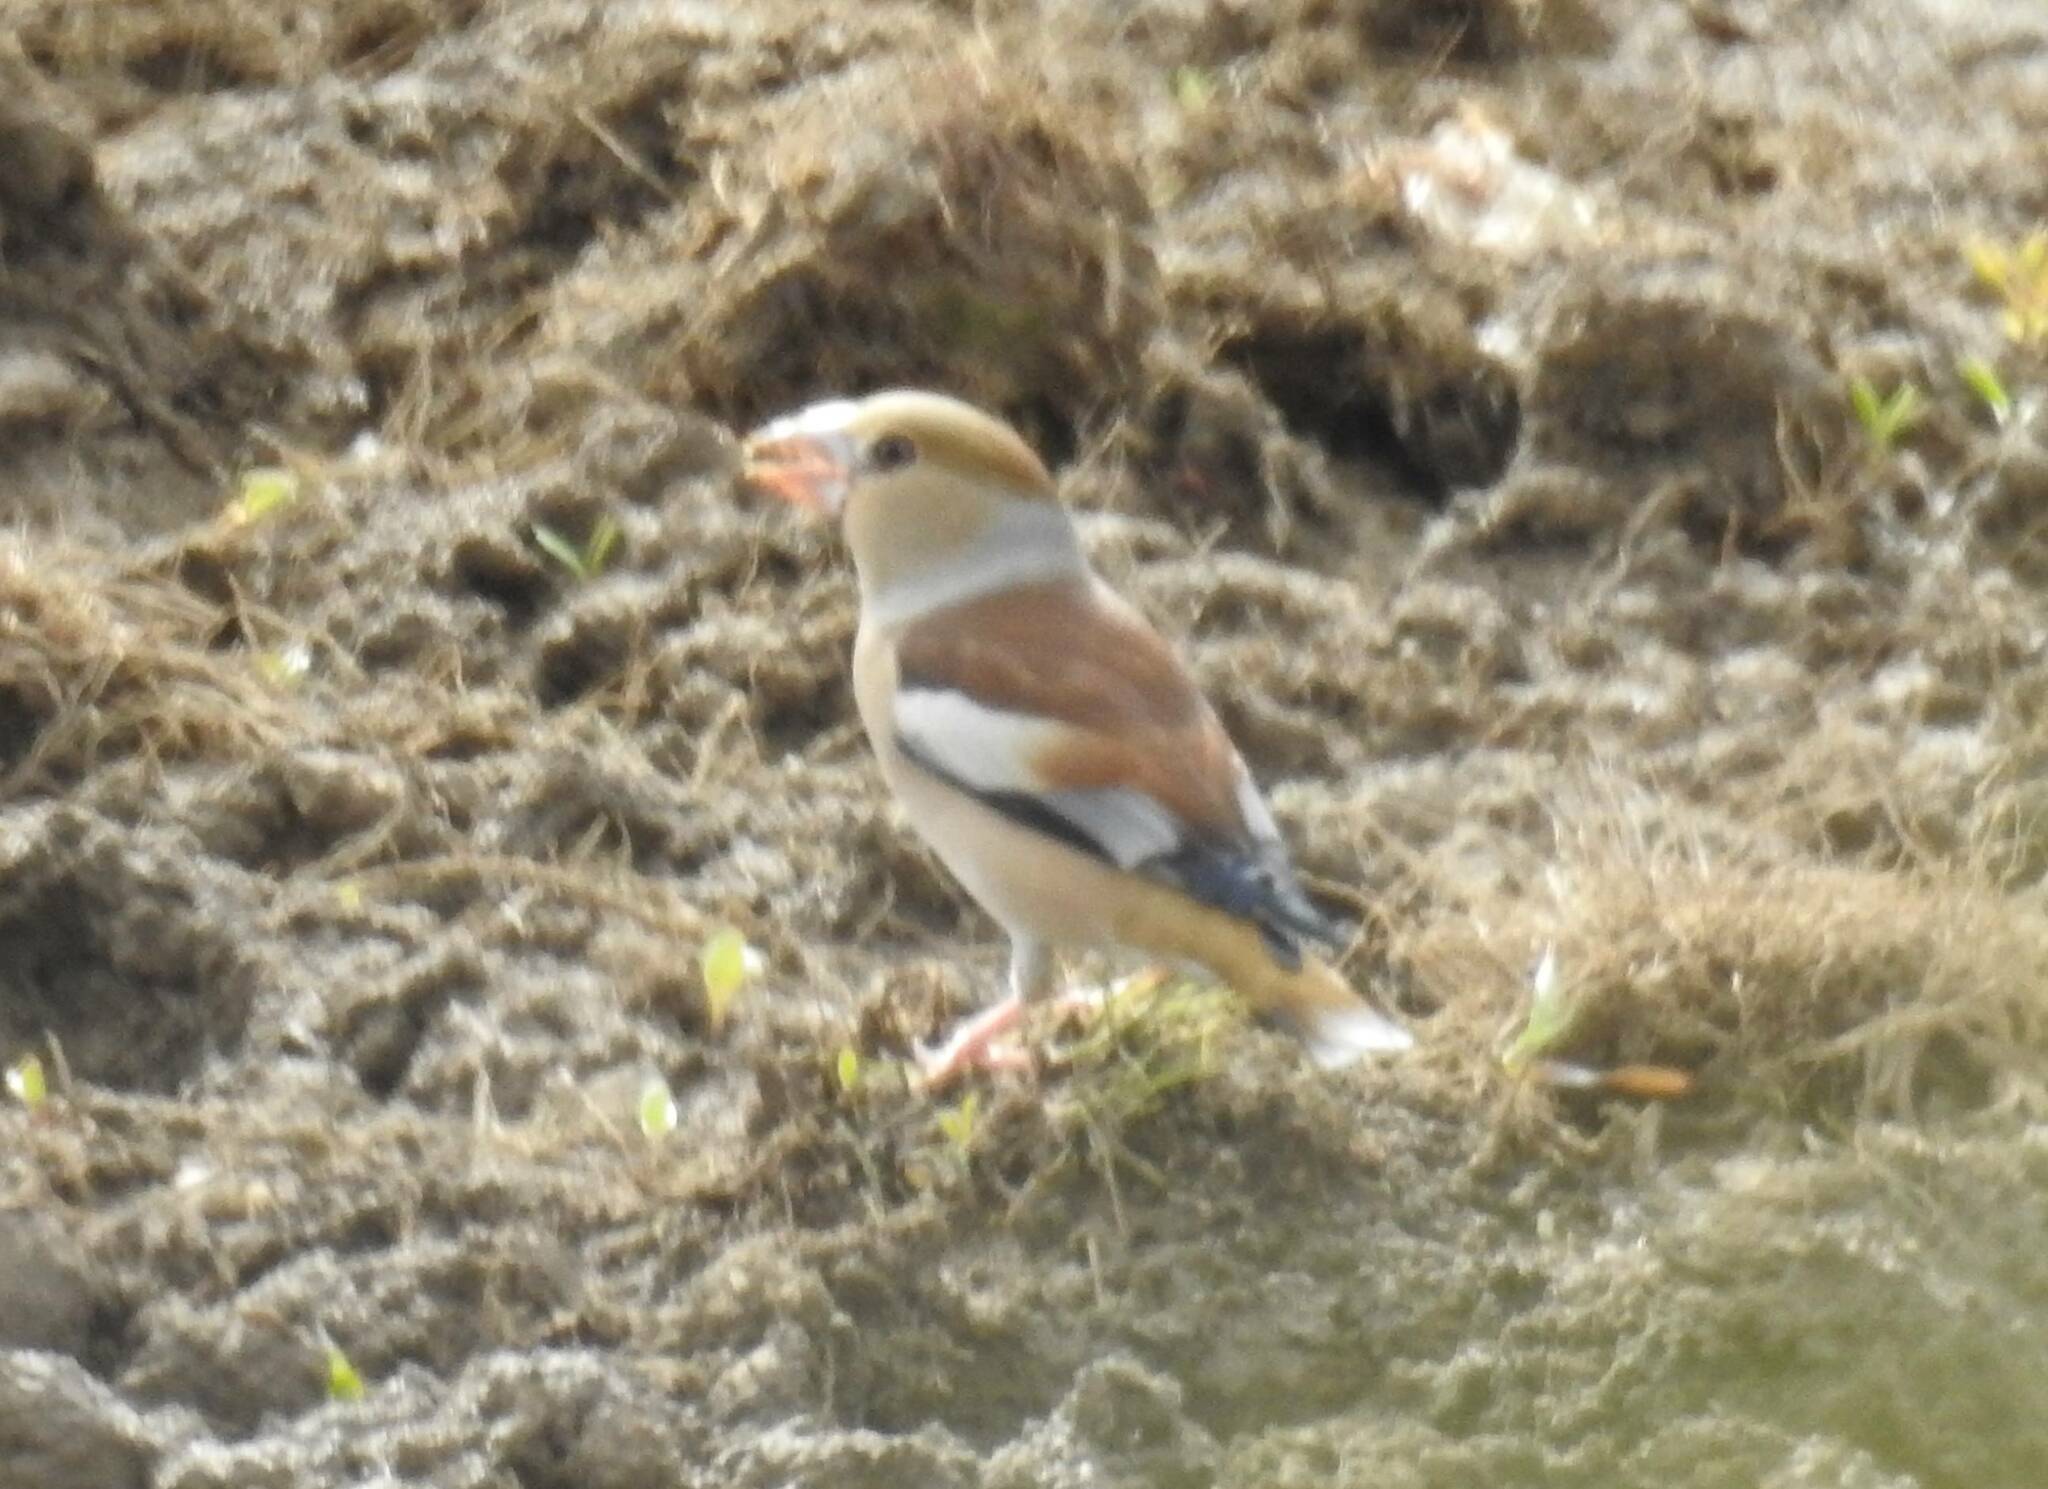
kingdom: Animalia
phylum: Chordata
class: Aves
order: Passeriformes
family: Fringillidae
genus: Coccothraustes
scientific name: Coccothraustes coccothraustes
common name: Hawfinch
